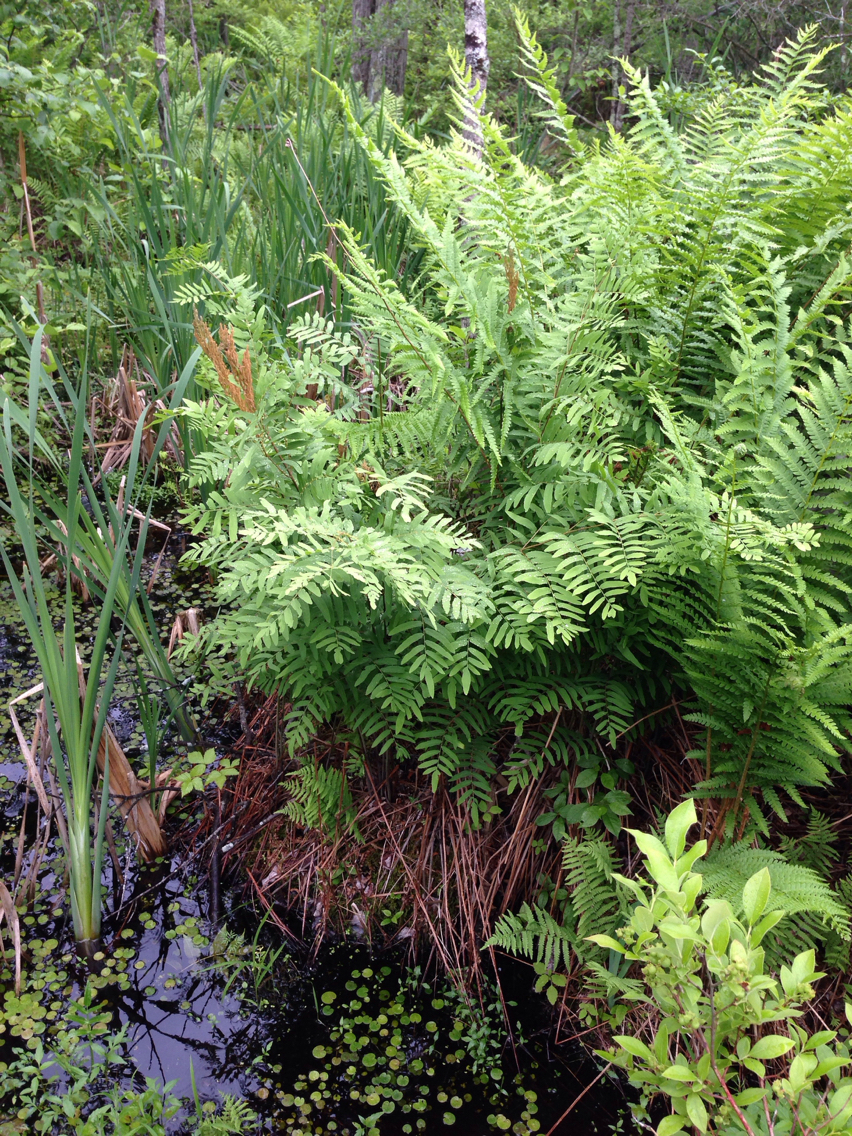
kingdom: Plantae
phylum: Tracheophyta
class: Polypodiopsida
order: Osmundales
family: Osmundaceae
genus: Osmunda
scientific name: Osmunda spectabilis
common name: American royal fern
